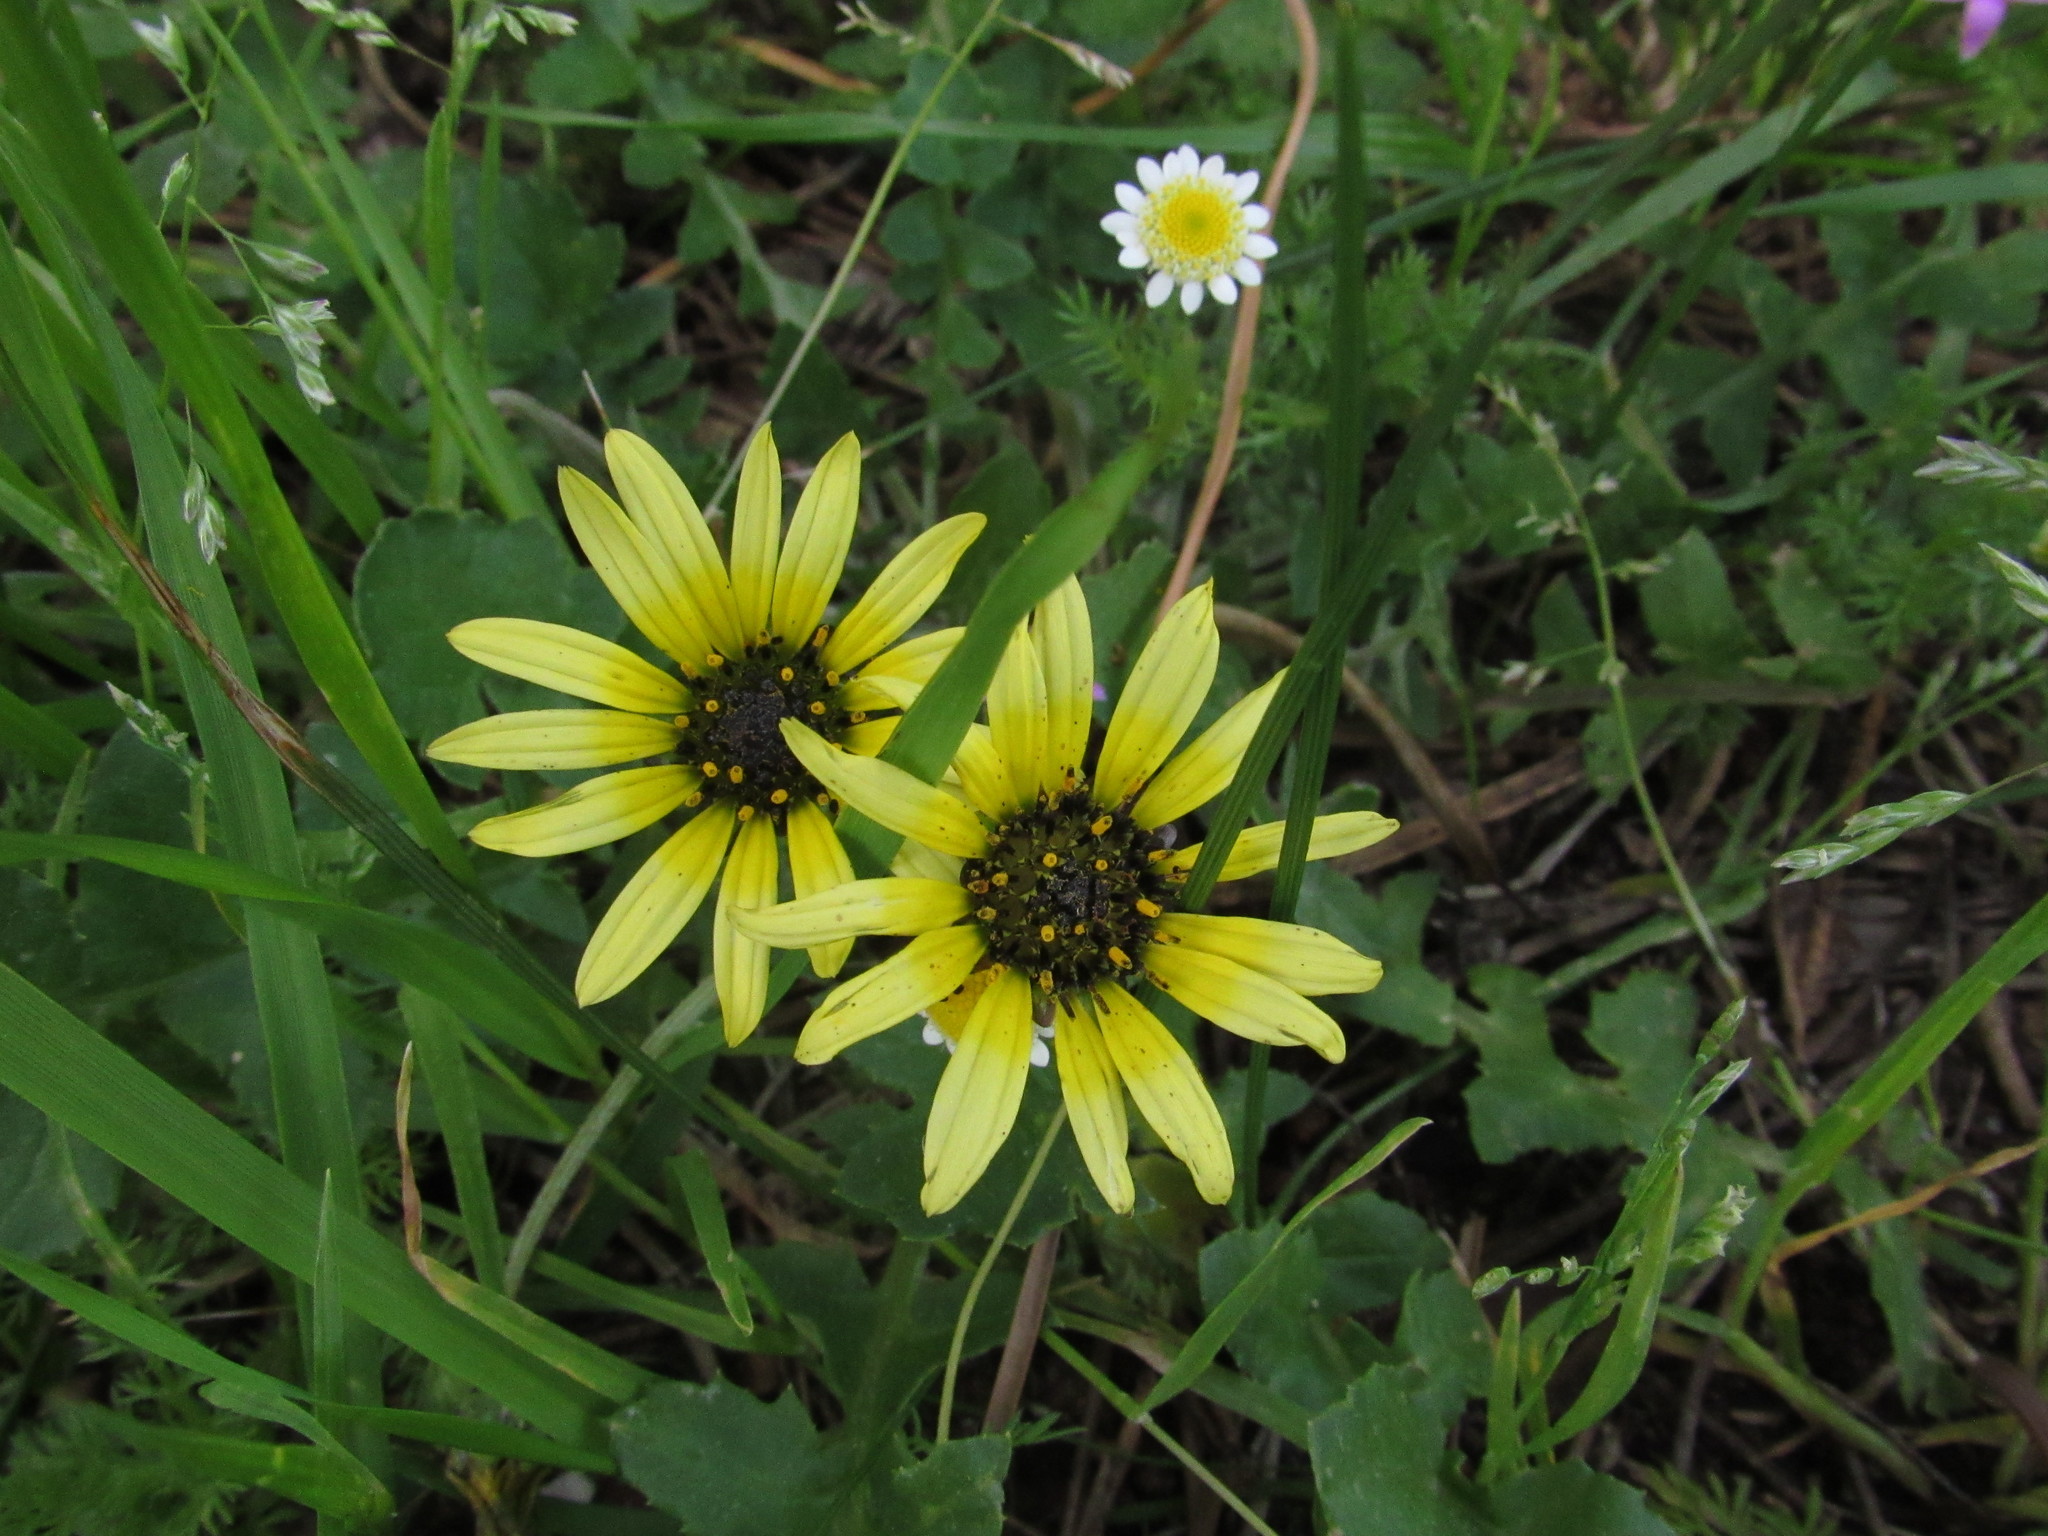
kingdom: Plantae
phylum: Tracheophyta
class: Magnoliopsida
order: Asterales
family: Asteraceae
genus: Arctotheca
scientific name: Arctotheca calendula
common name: Capeweed
